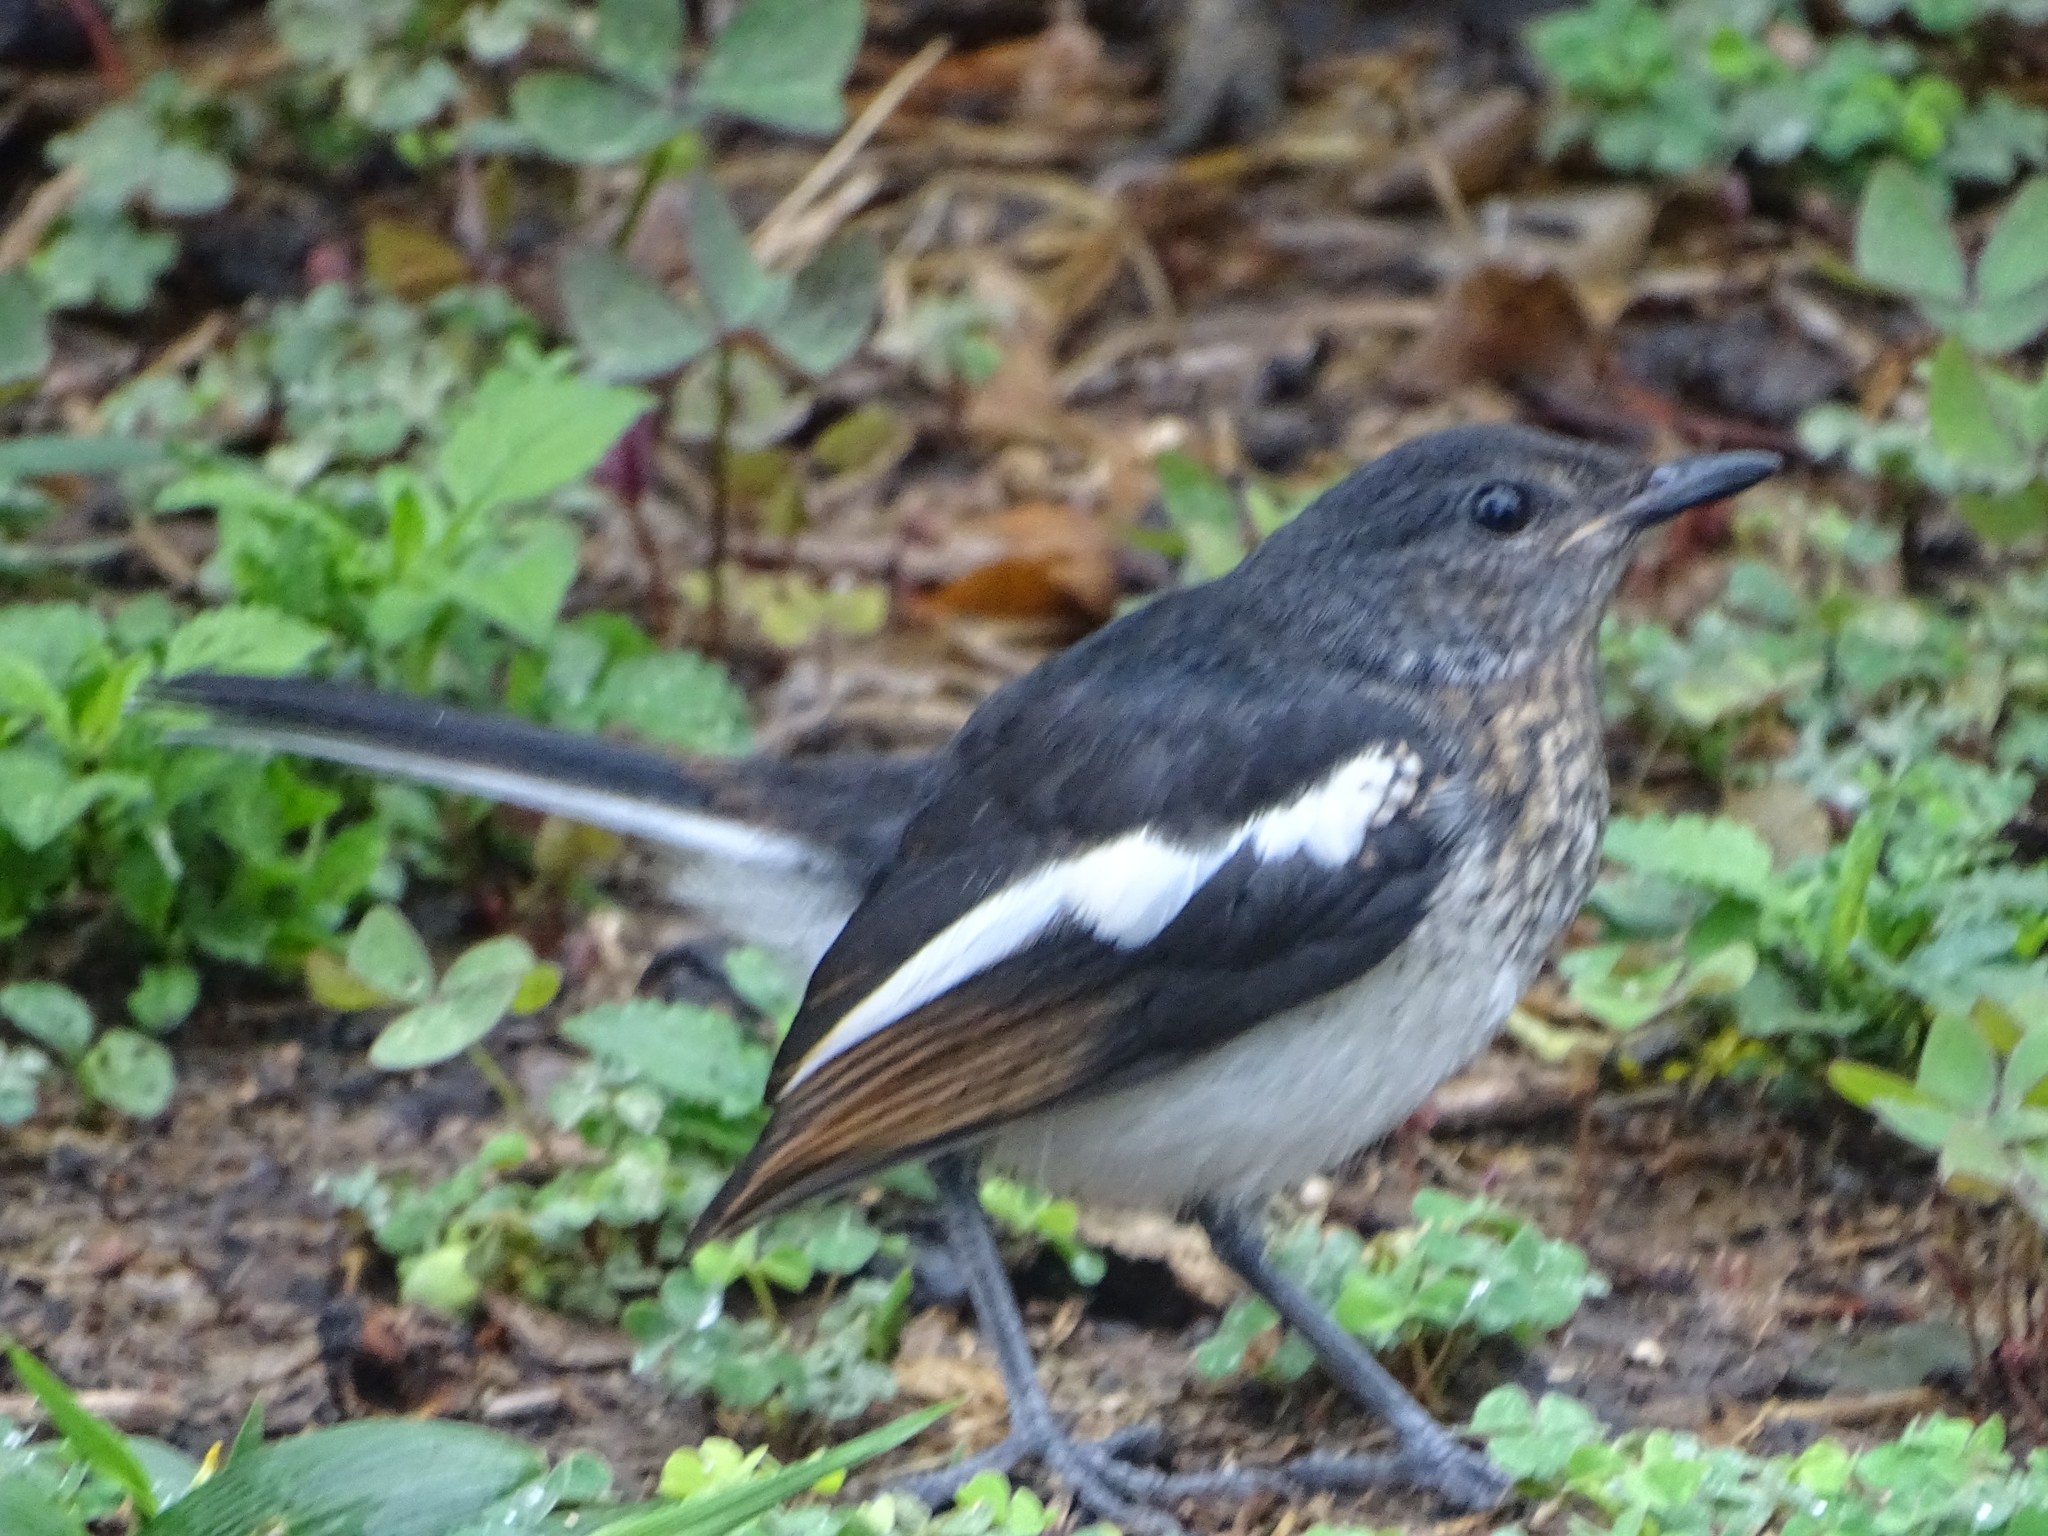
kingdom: Animalia
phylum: Chordata
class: Aves
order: Passeriformes
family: Muscicapidae
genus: Copsychus
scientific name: Copsychus saularis
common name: Oriental magpie-robin
